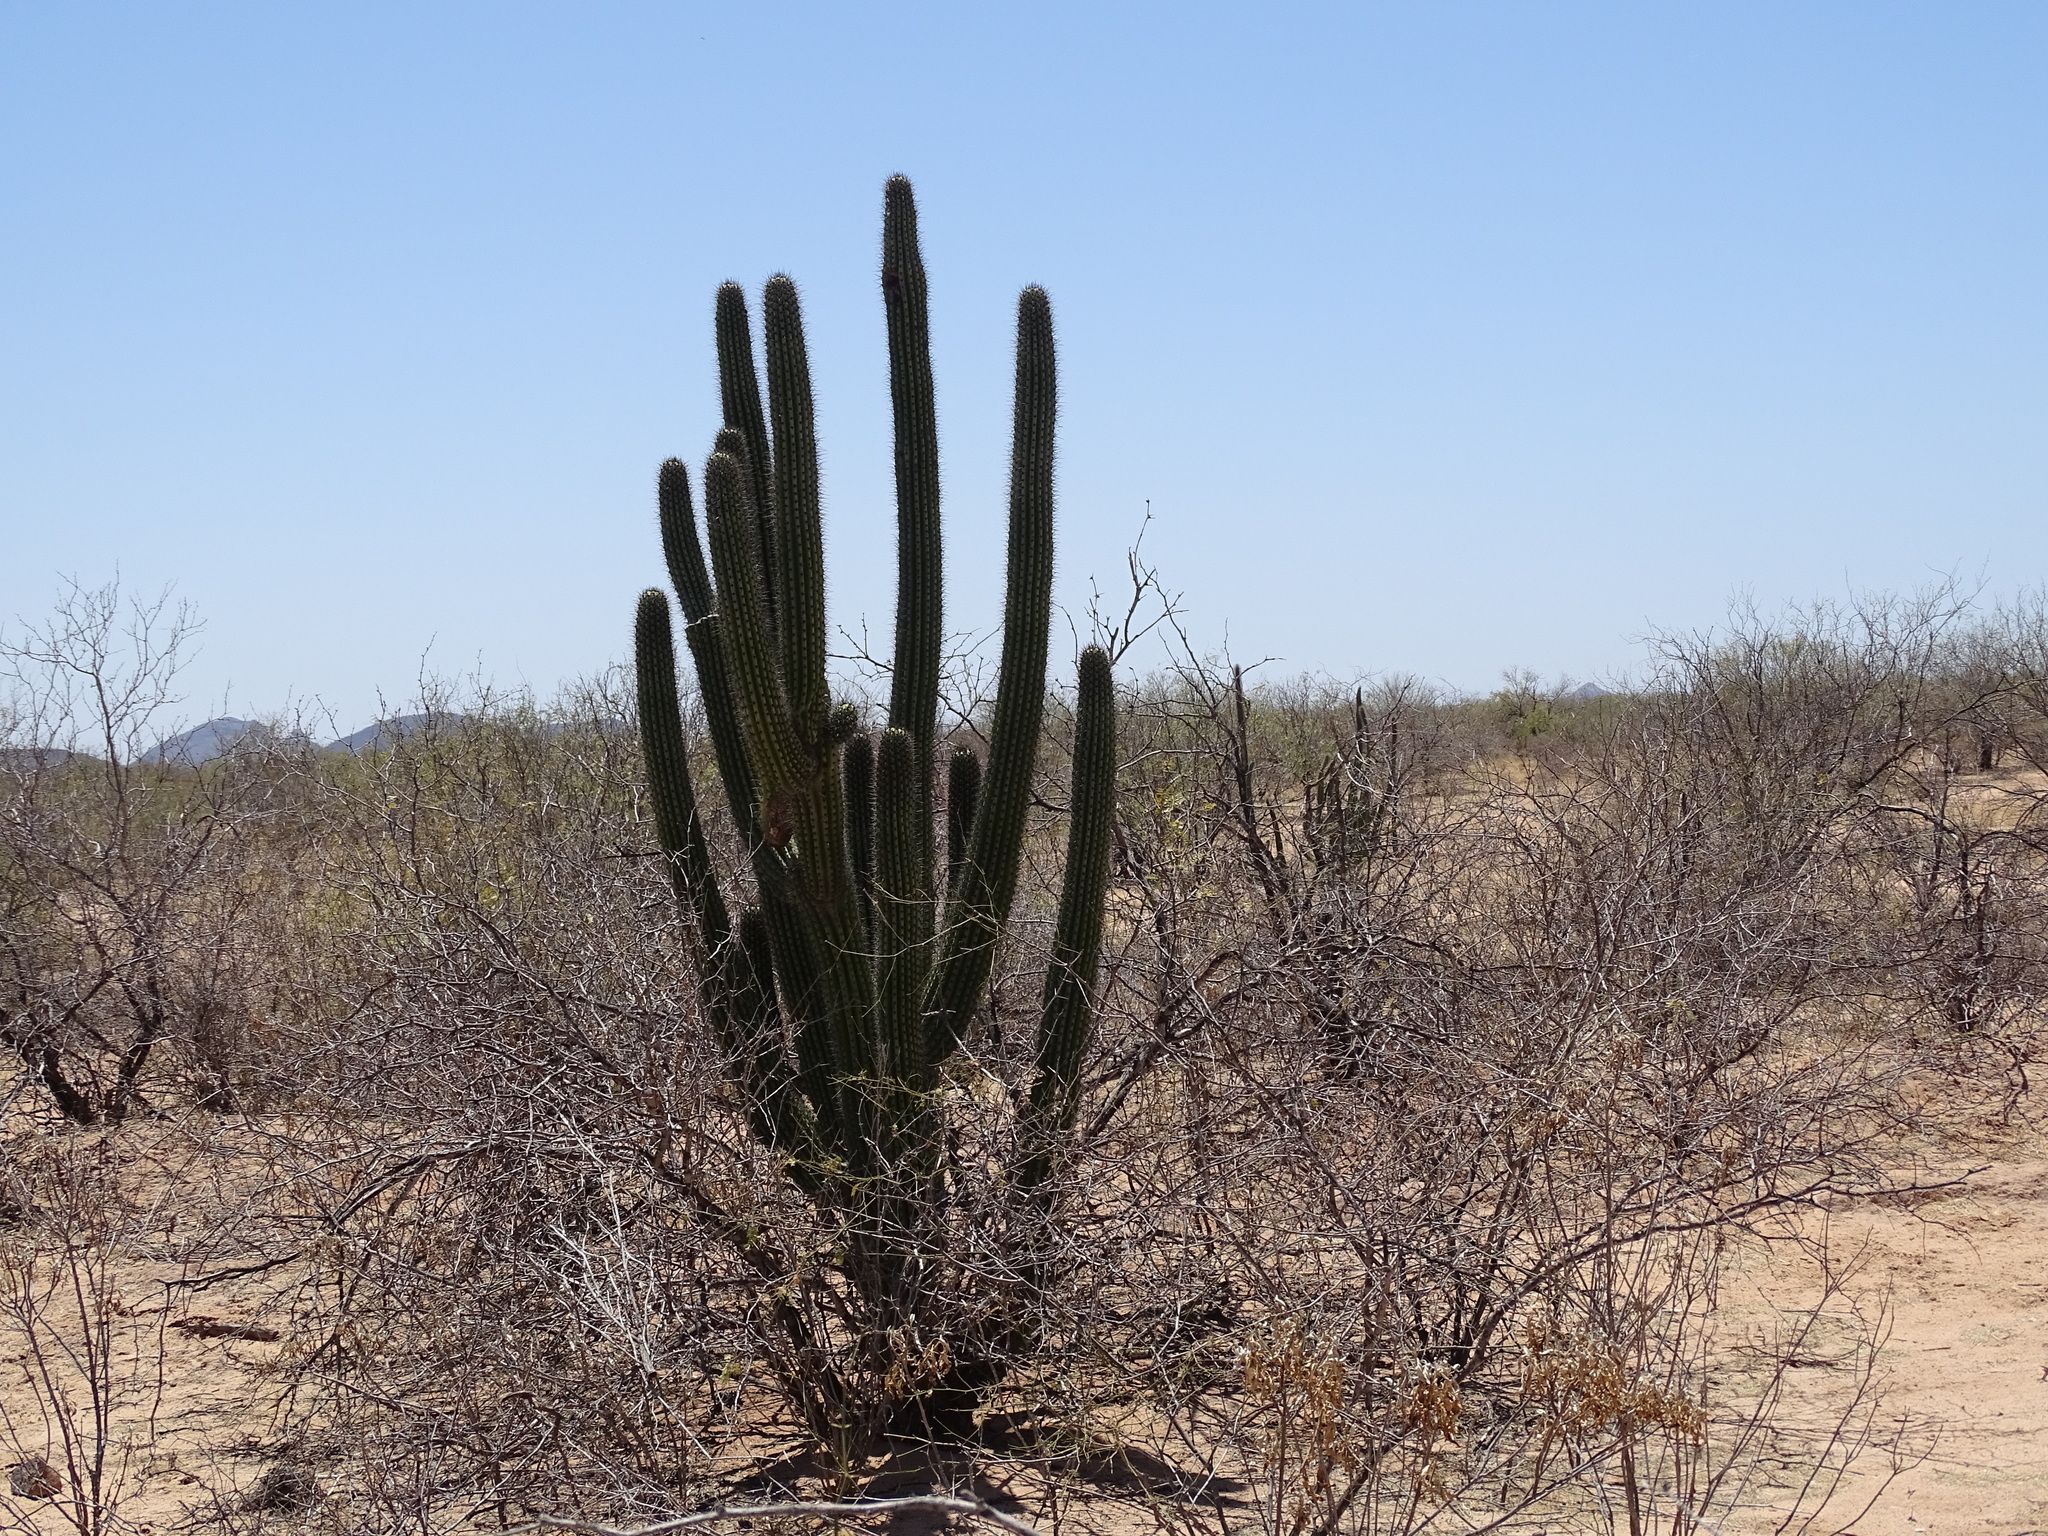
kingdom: Plantae
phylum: Tracheophyta
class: Magnoliopsida
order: Caryophyllales
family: Cactaceae
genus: Stenocereus
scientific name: Stenocereus thurberi
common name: Organ pipe cactus
